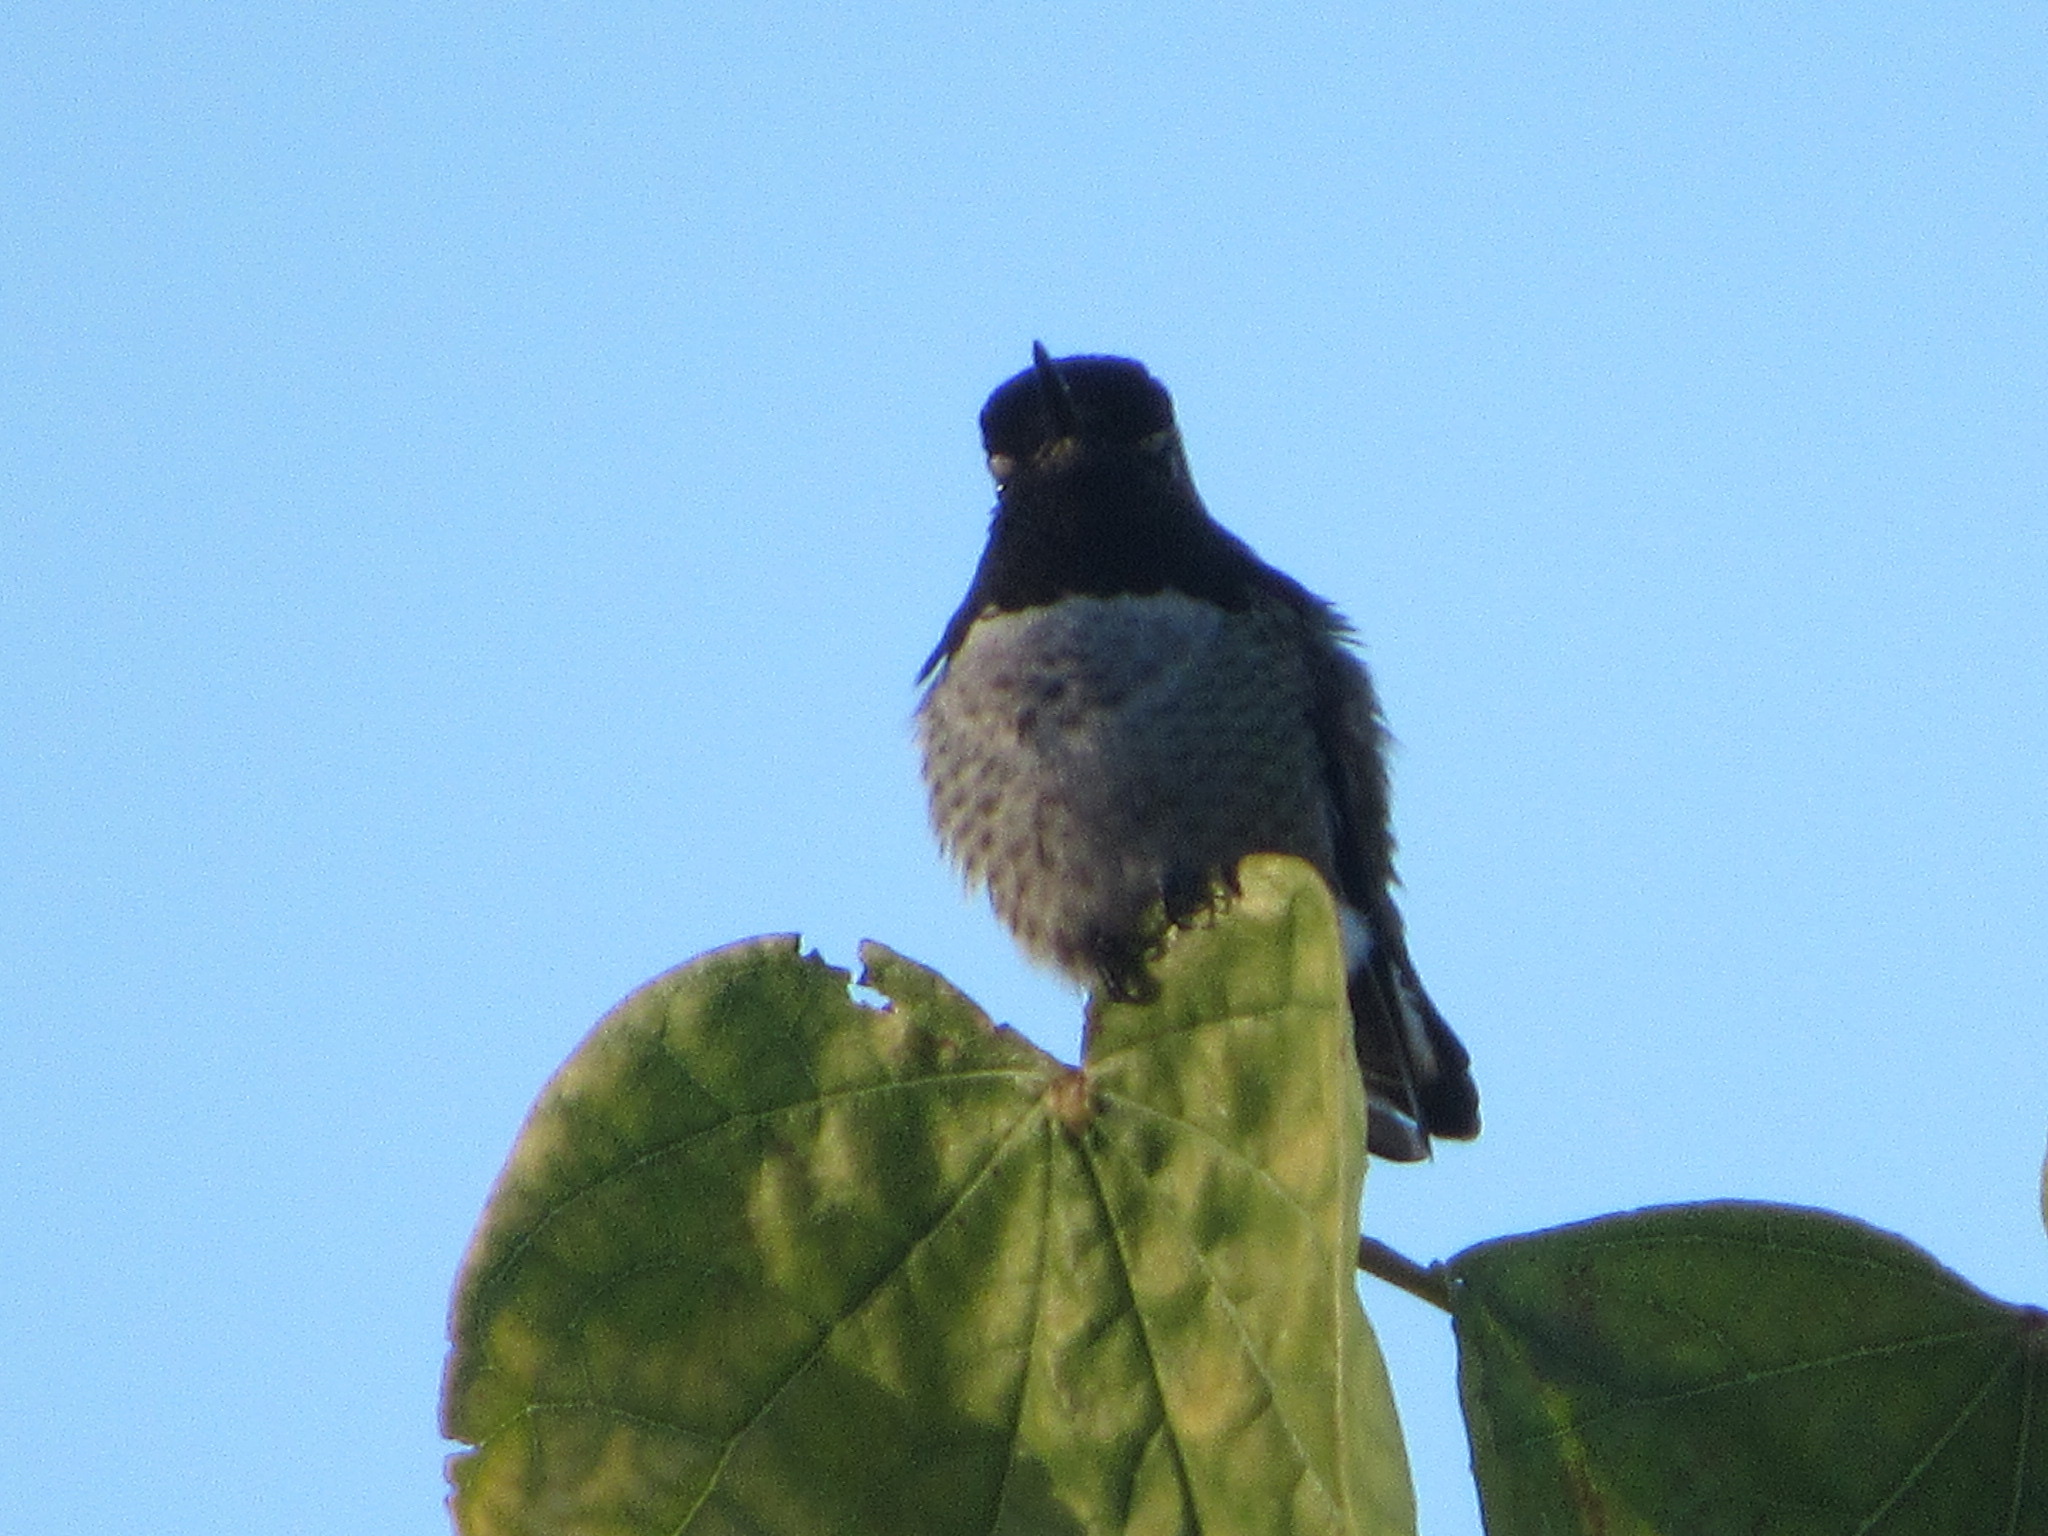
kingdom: Animalia
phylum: Chordata
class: Aves
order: Apodiformes
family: Trochilidae
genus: Calypte
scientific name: Calypte anna
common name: Anna's hummingbird
